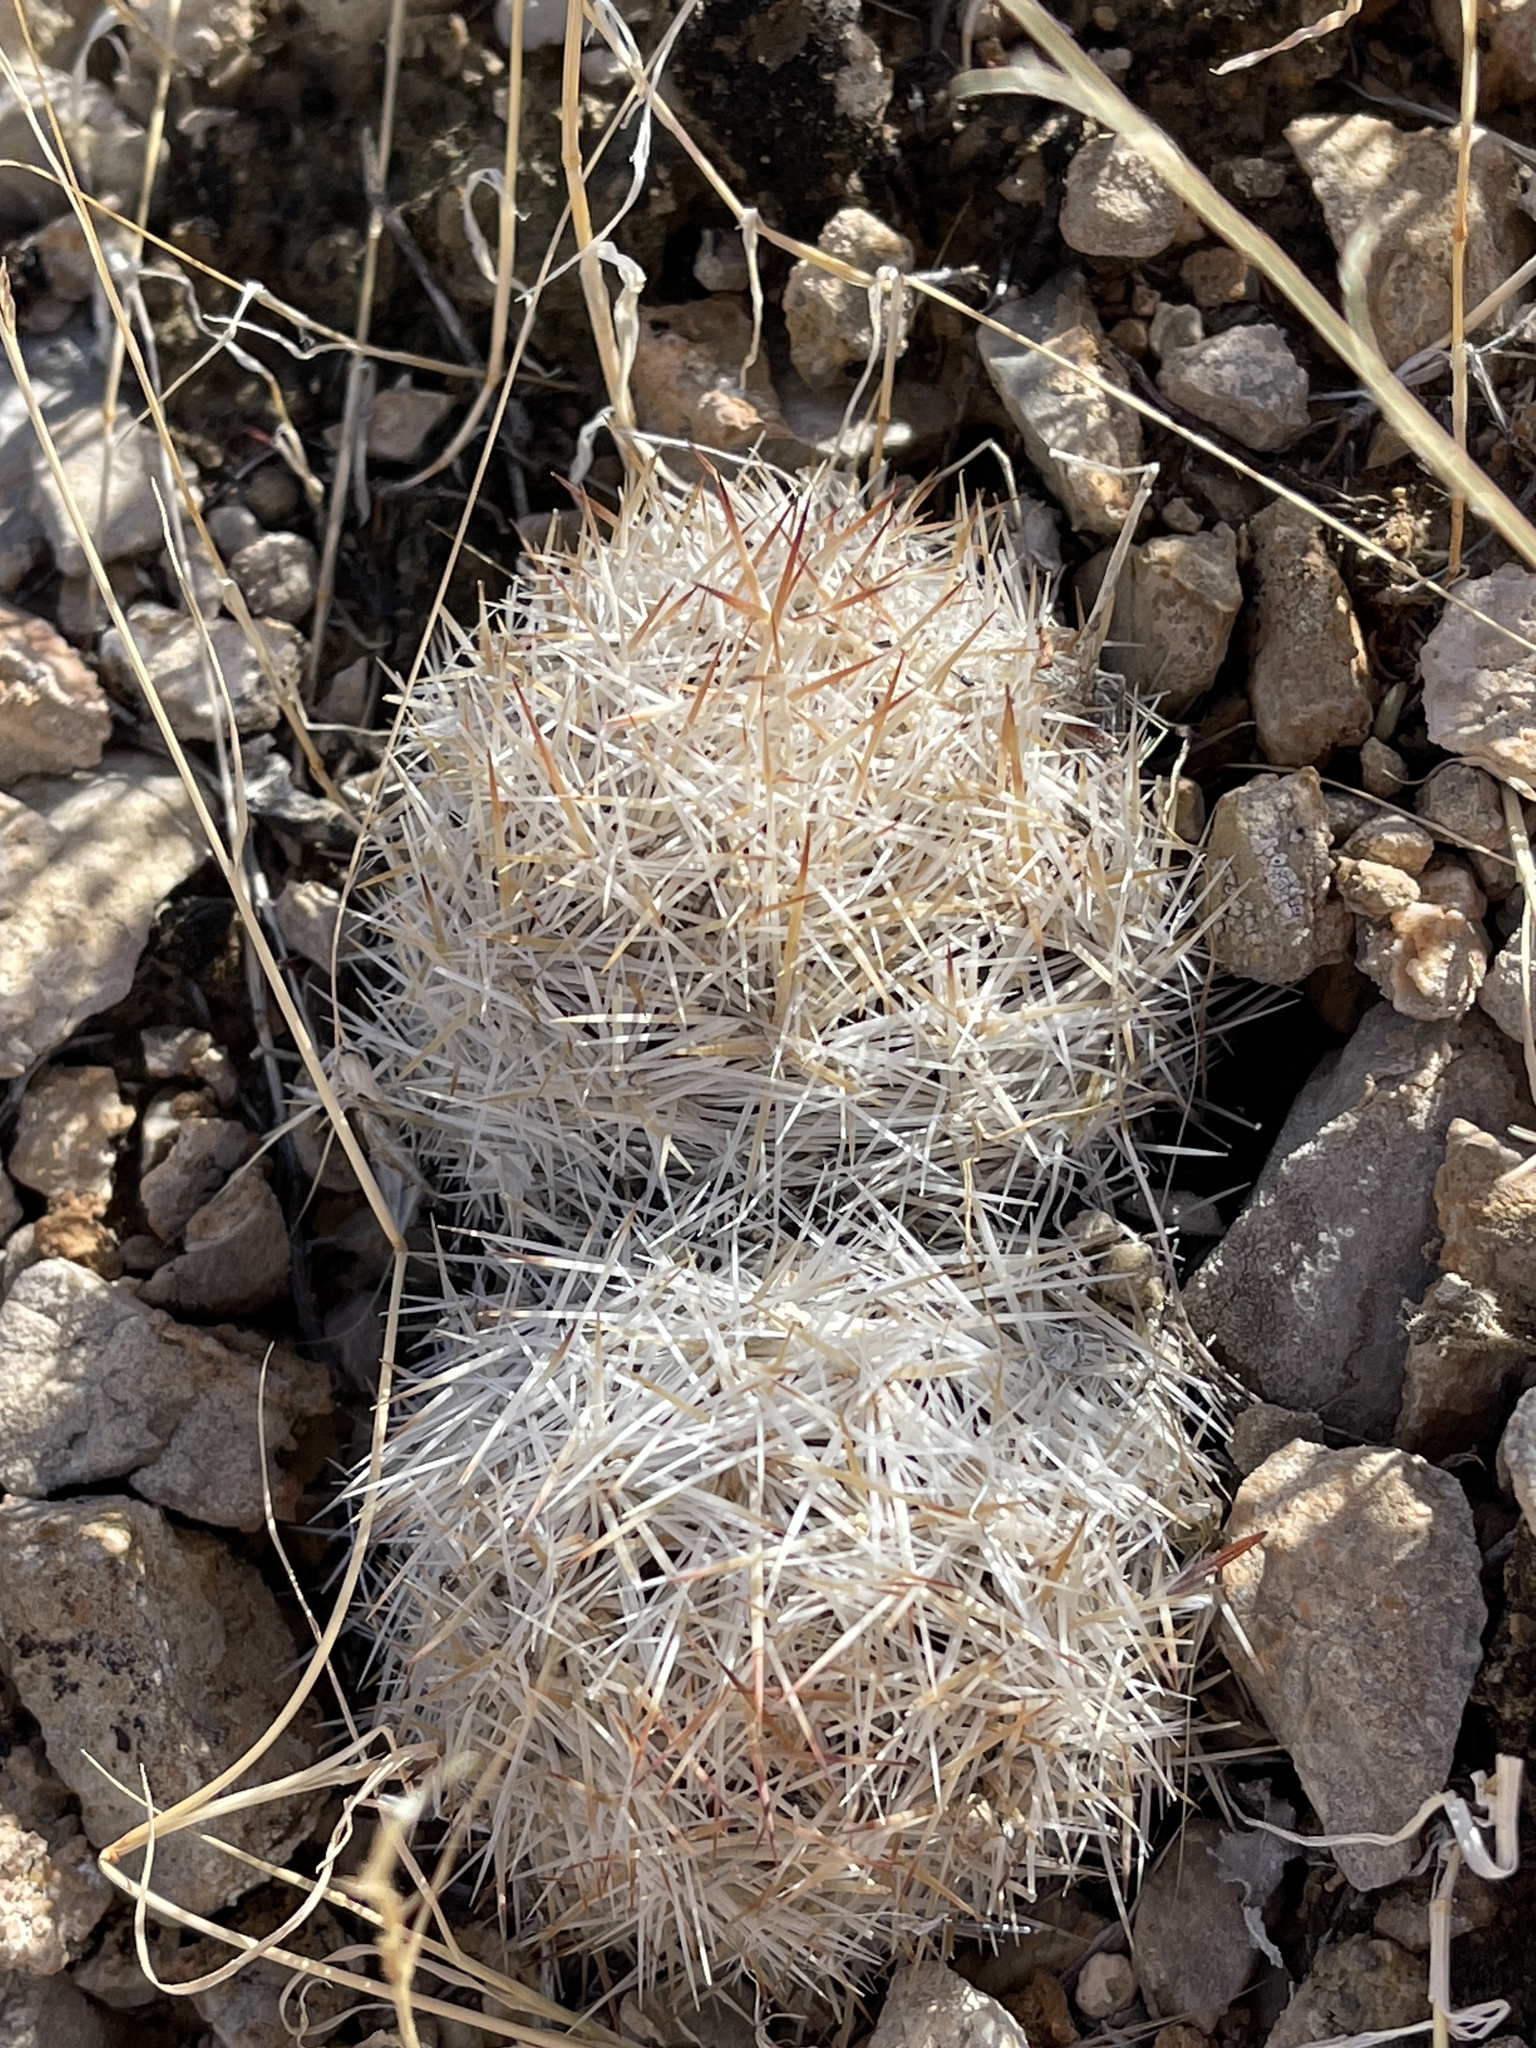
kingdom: Plantae
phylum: Tracheophyta
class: Magnoliopsida
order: Caryophyllales
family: Cactaceae
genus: Pelecyphora
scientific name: Pelecyphora dasyacantha
